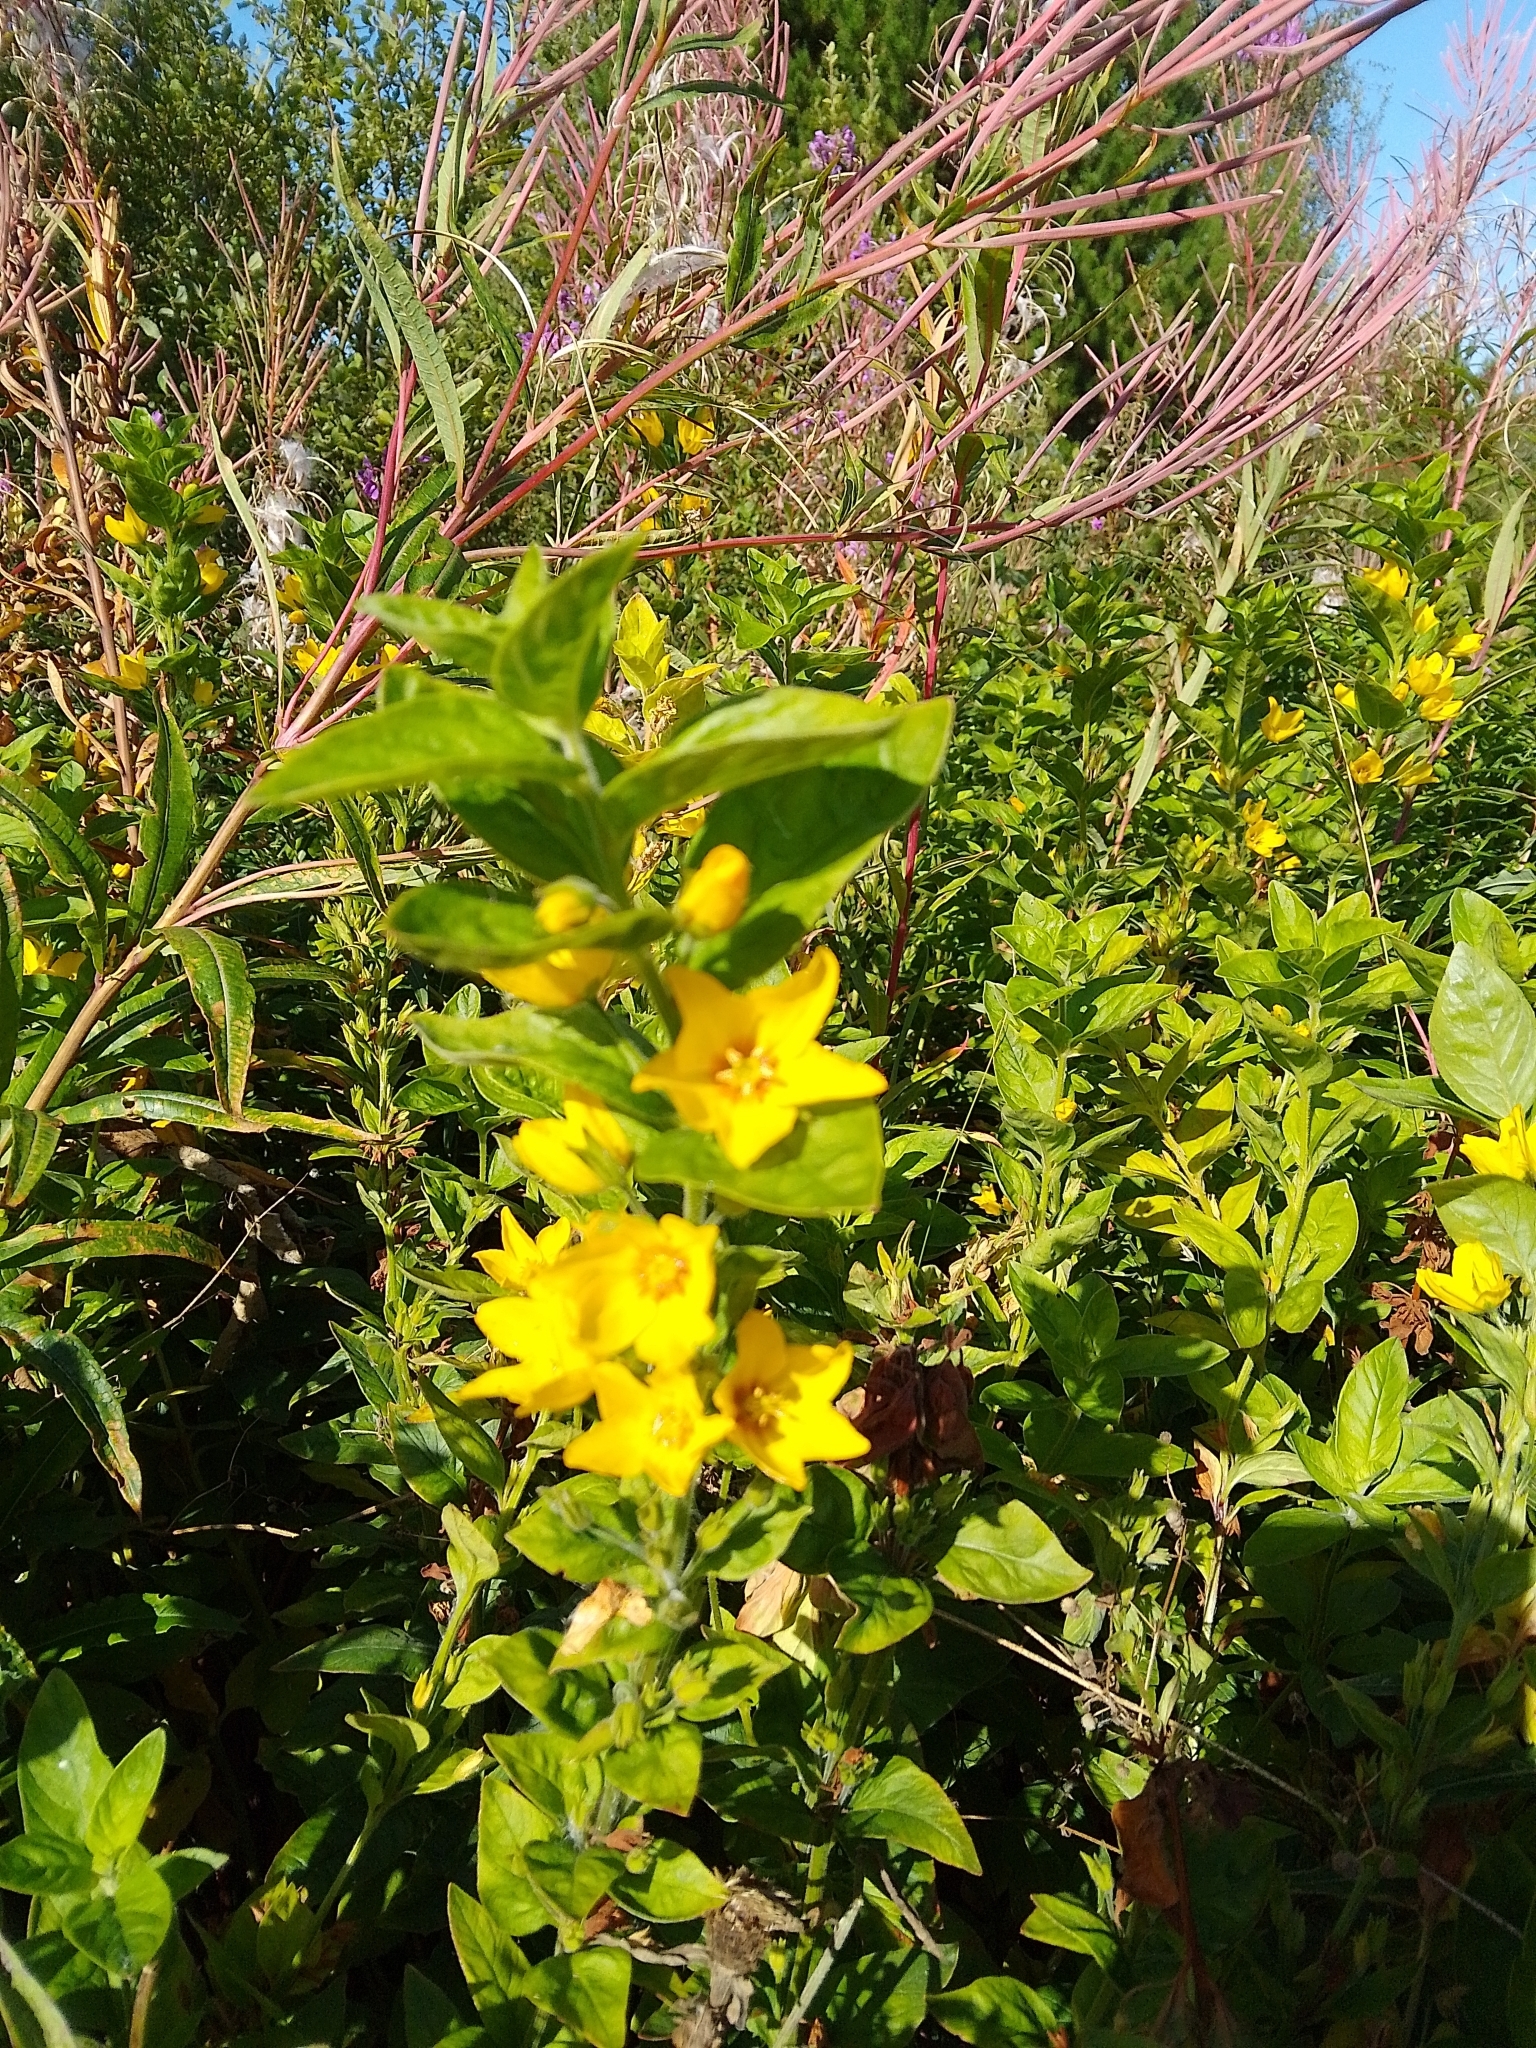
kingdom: Plantae
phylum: Tracheophyta
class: Magnoliopsida
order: Ericales
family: Primulaceae
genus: Lysimachia
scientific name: Lysimachia punctata
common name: Dotted loosestrife
